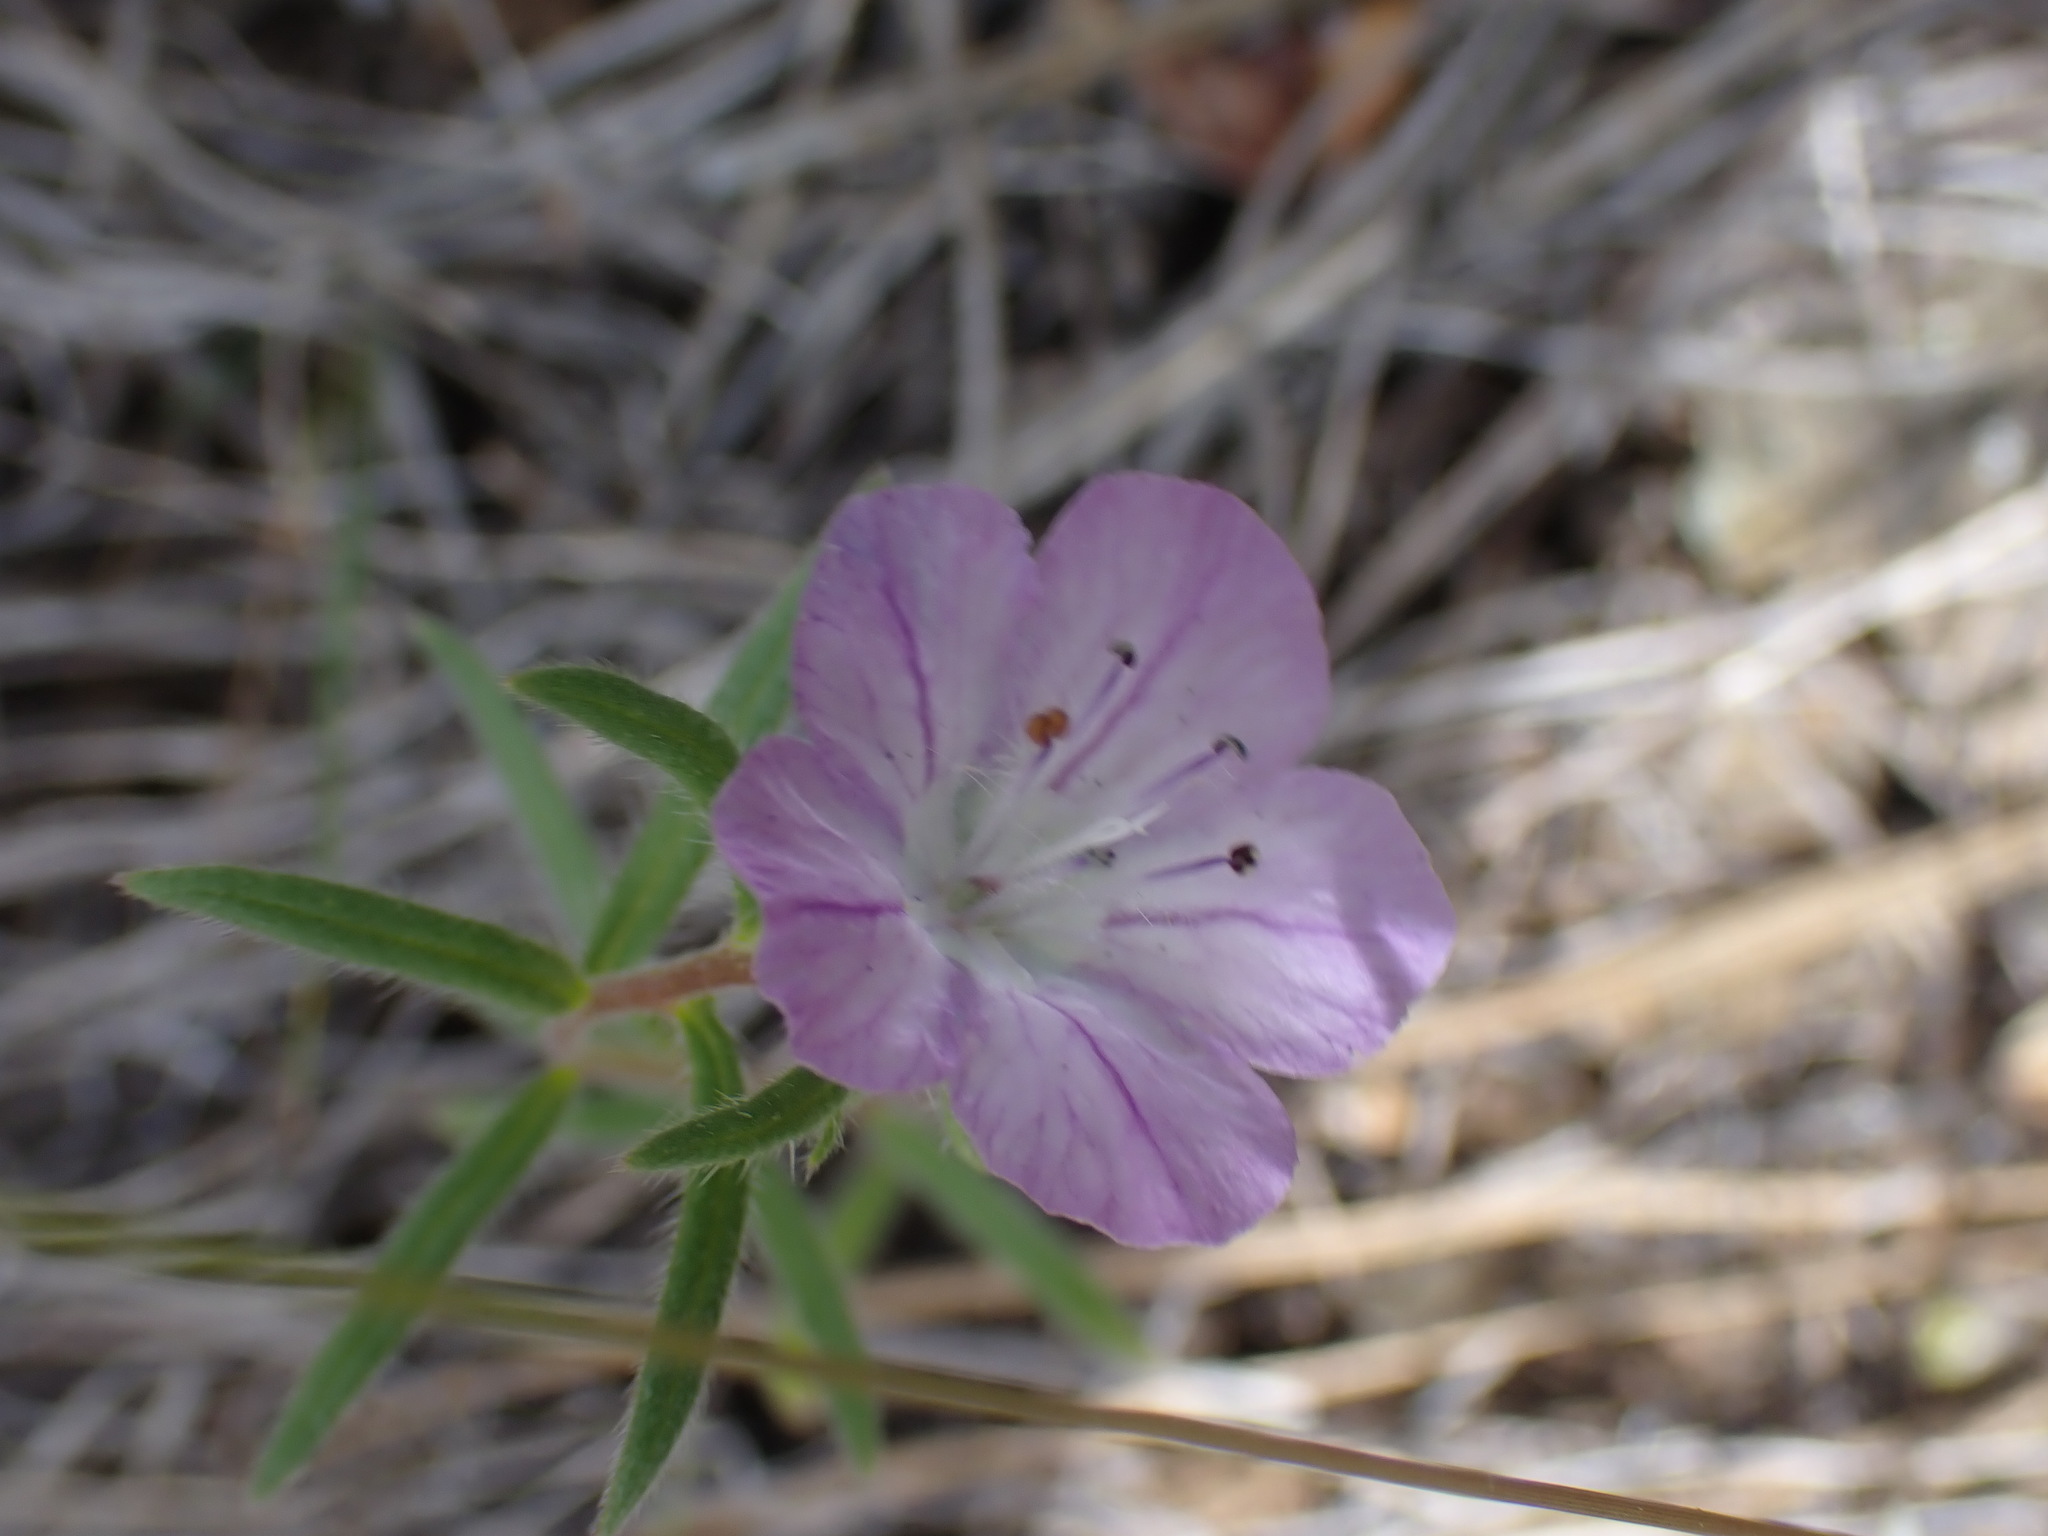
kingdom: Plantae
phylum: Tracheophyta
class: Magnoliopsida
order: Boraginales
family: Hydrophyllaceae
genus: Phacelia
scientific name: Phacelia linearis
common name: Linear-leaved phacelia
